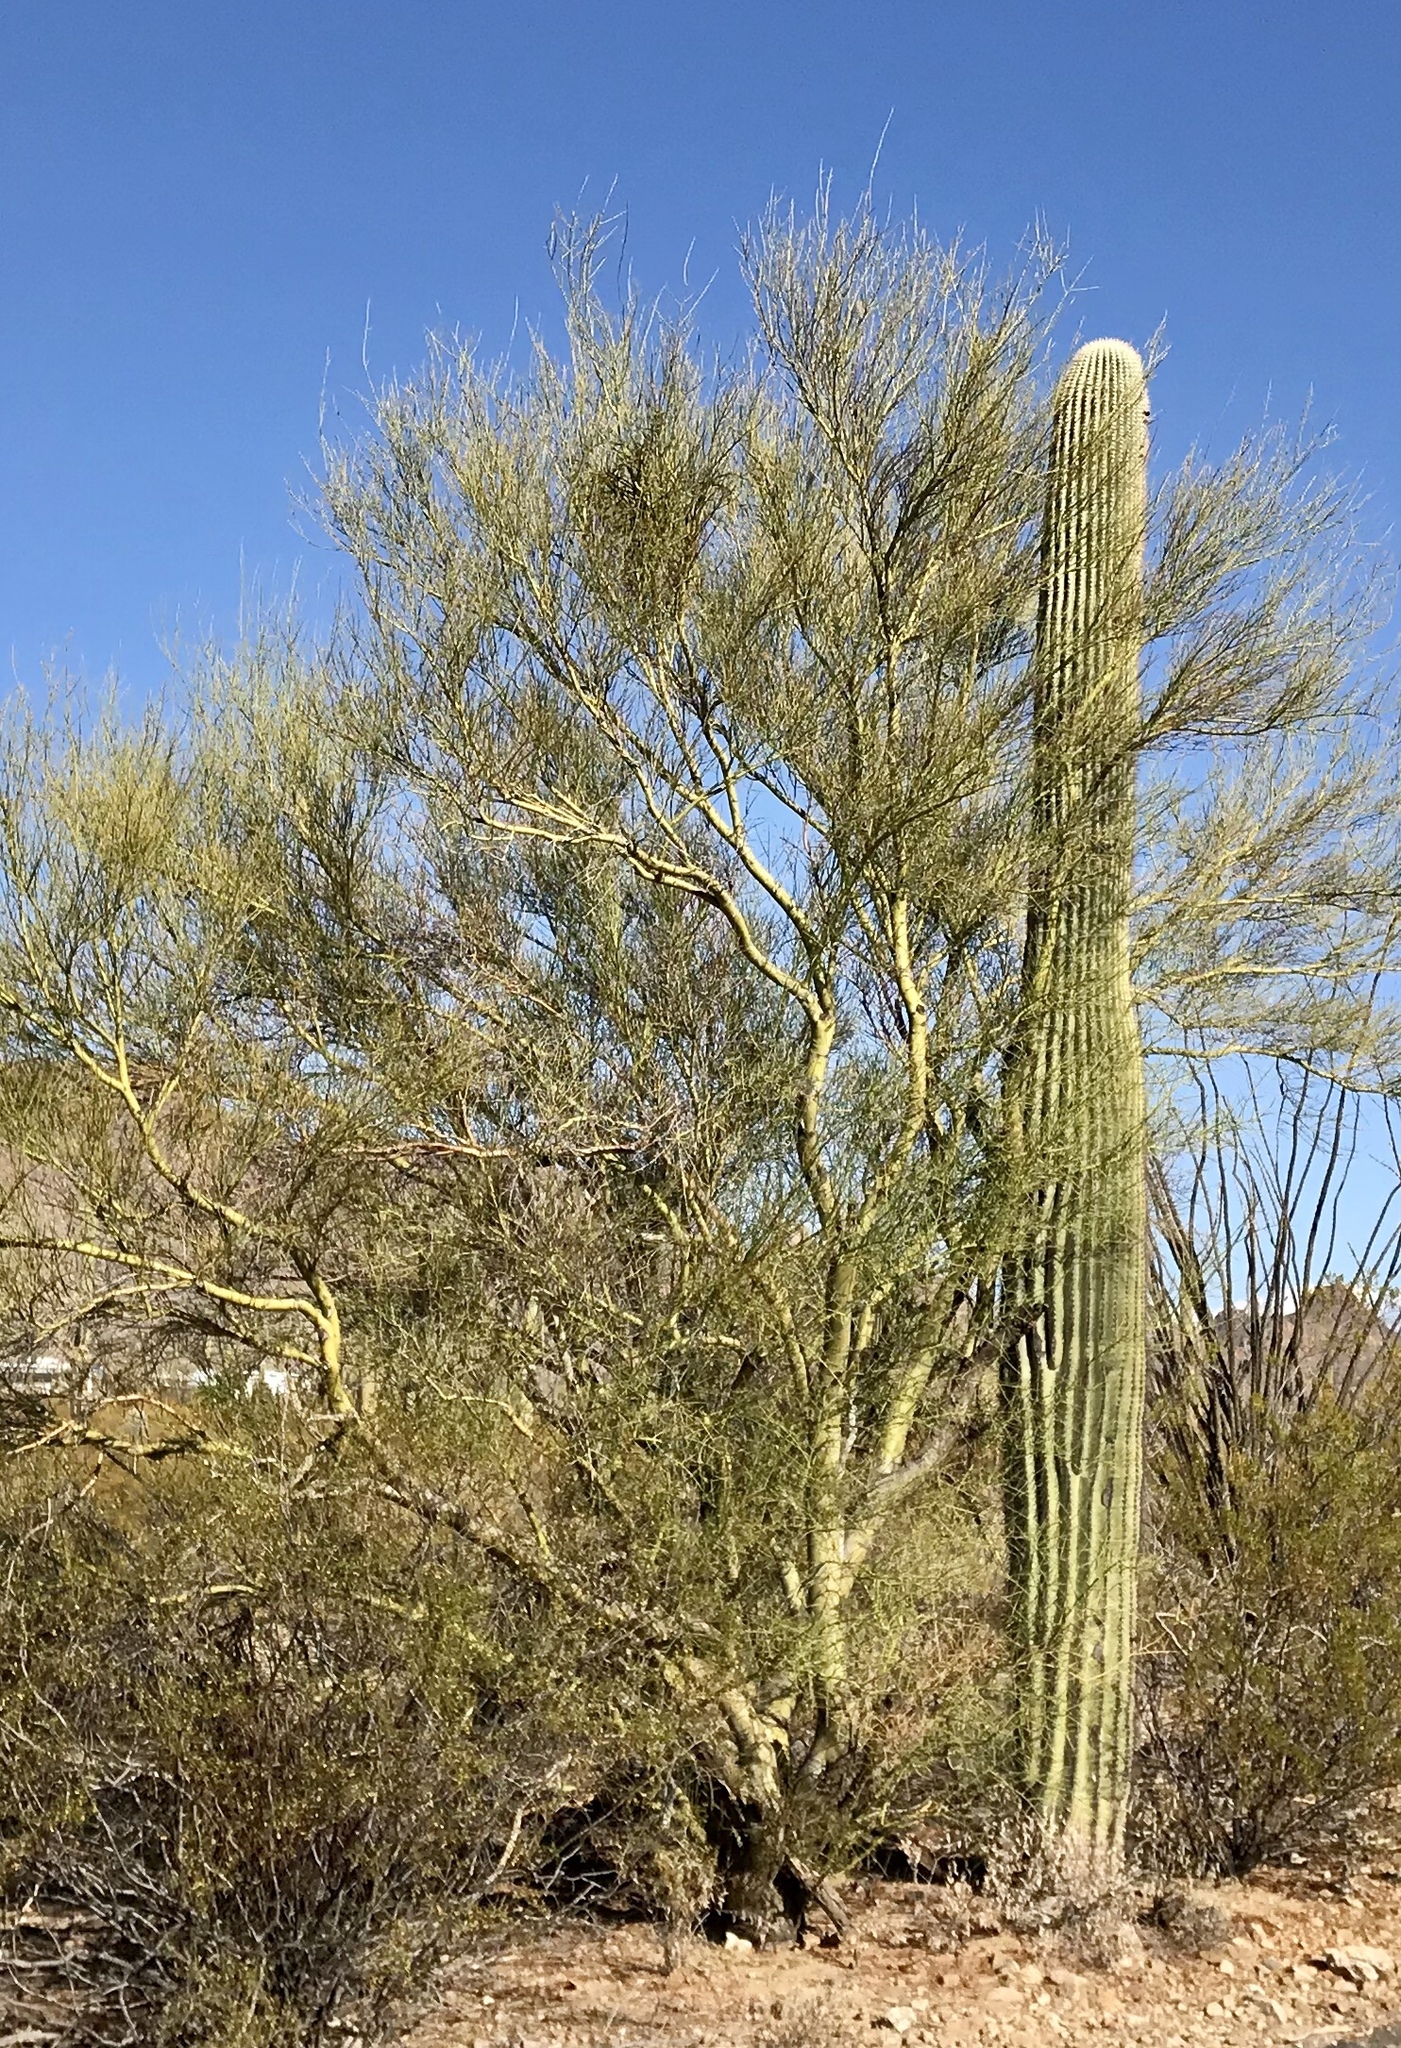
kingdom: Plantae
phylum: Tracheophyta
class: Magnoliopsida
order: Fabales
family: Fabaceae
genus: Parkinsonia
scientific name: Parkinsonia microphylla
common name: Yellow paloverde
